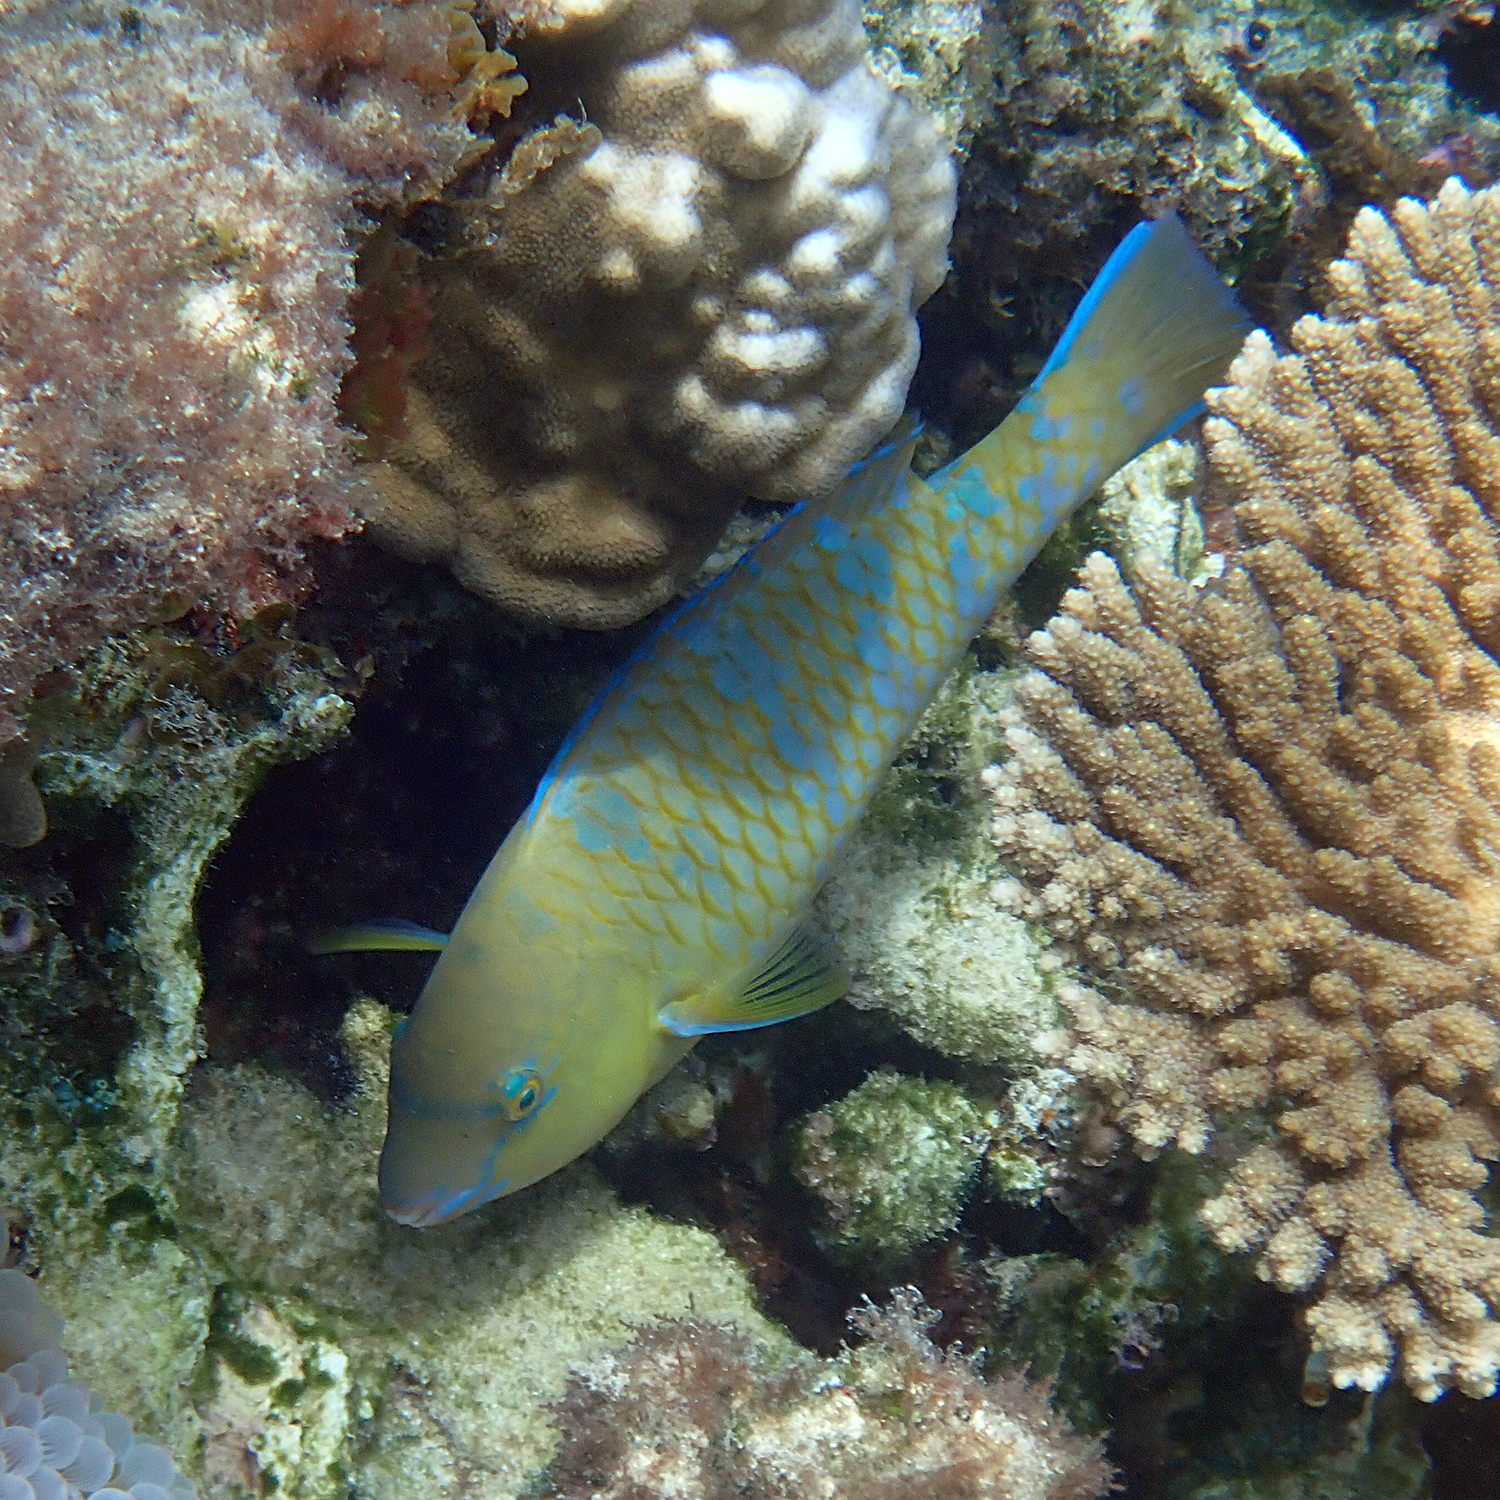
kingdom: Animalia
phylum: Chordata
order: Perciformes
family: Scaridae
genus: Scarus
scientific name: Scarus ghobban
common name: Blue-barred parrotfish
